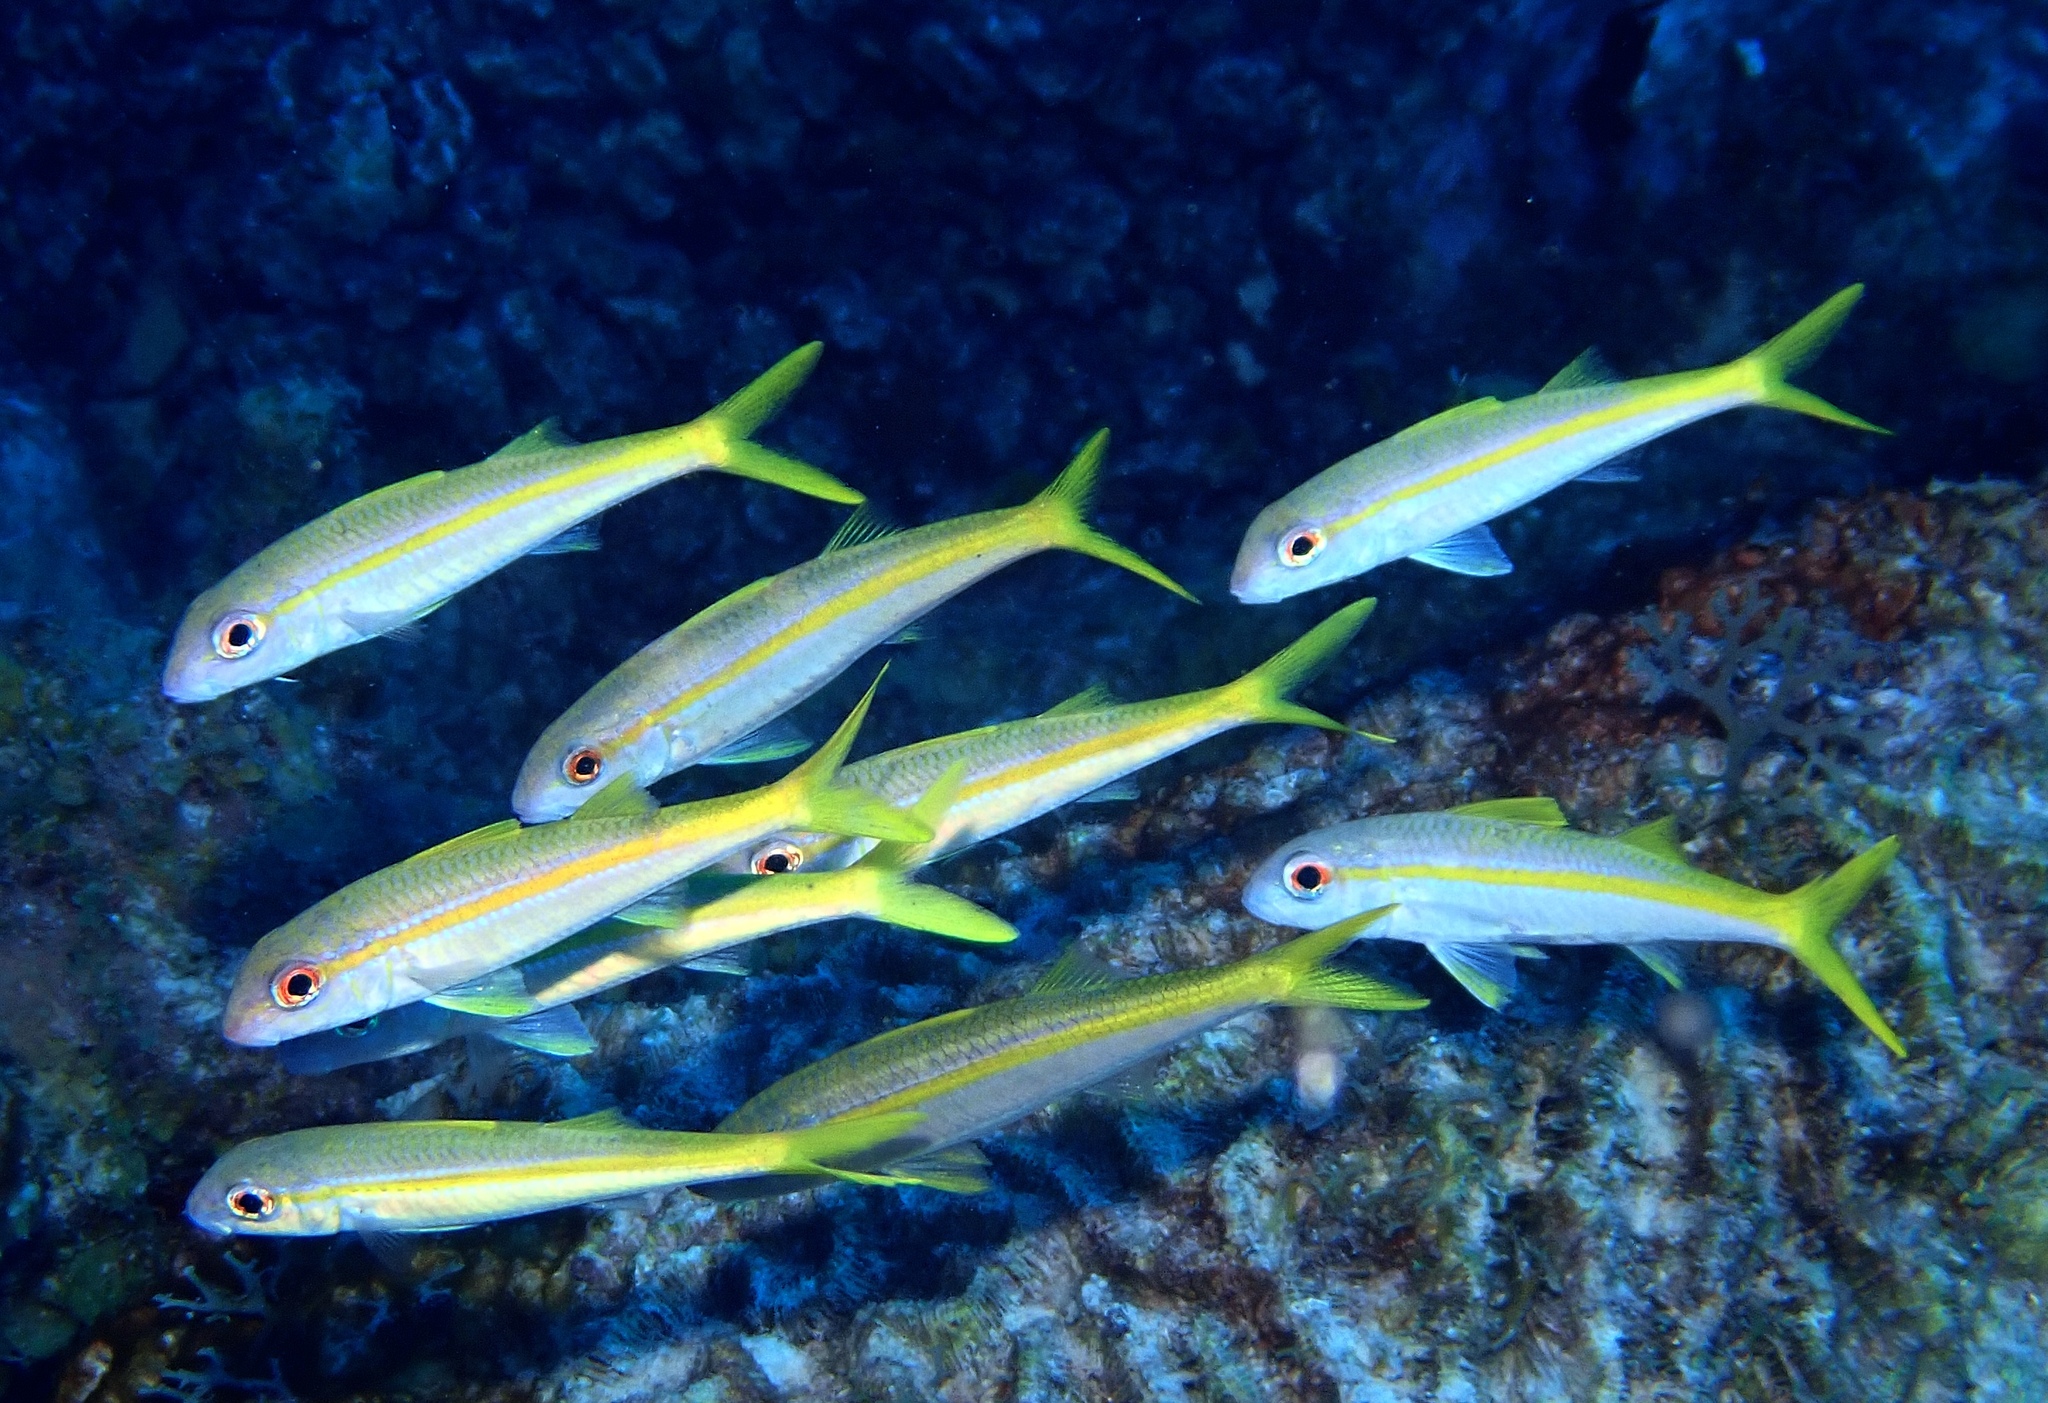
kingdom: Animalia
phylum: Chordata
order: Perciformes
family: Mullidae
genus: Mulloidichthys
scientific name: Mulloidichthys martinicus
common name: Yellow goatfish
